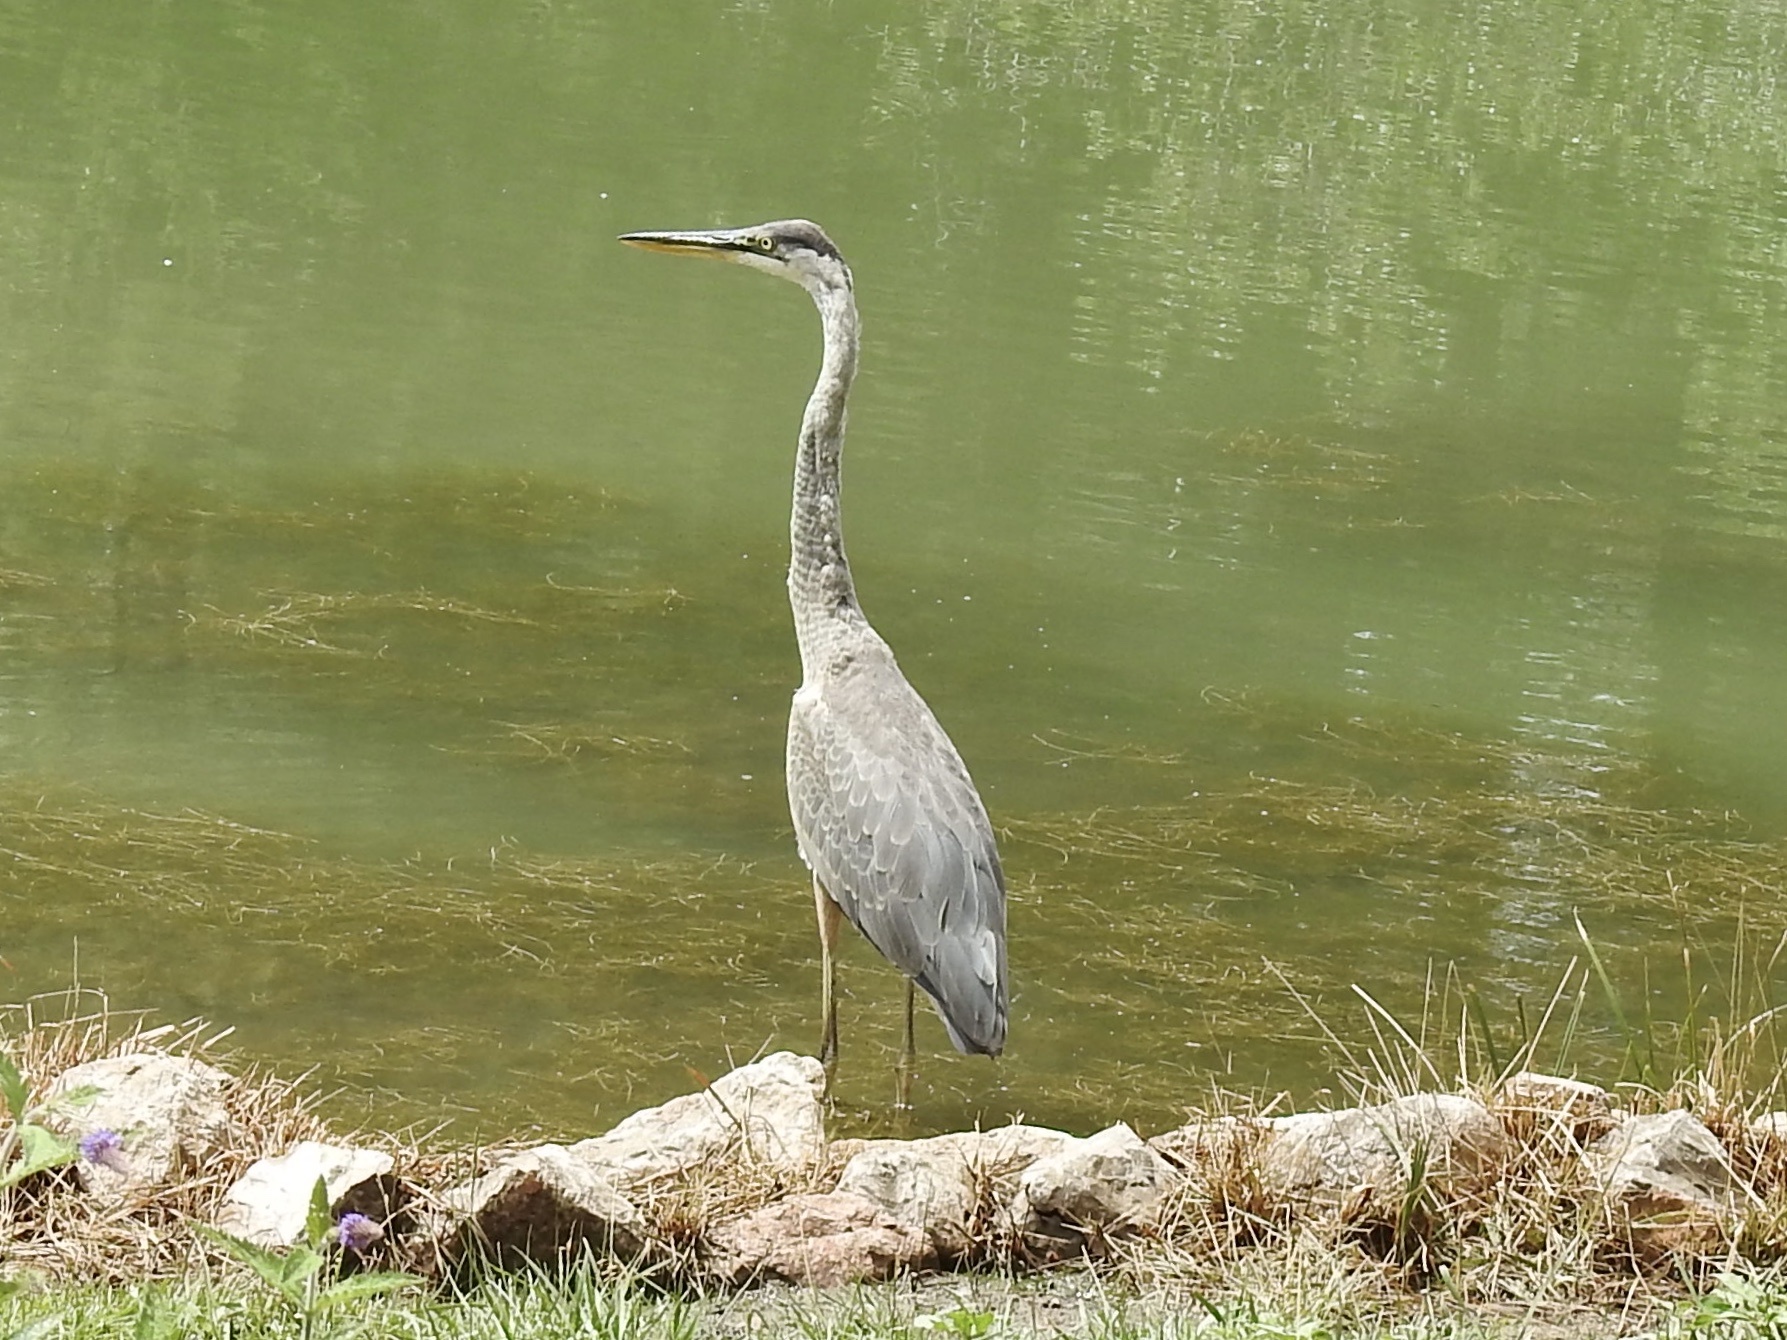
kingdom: Animalia
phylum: Chordata
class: Aves
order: Pelecaniformes
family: Ardeidae
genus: Ardea
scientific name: Ardea herodias
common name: Great blue heron
